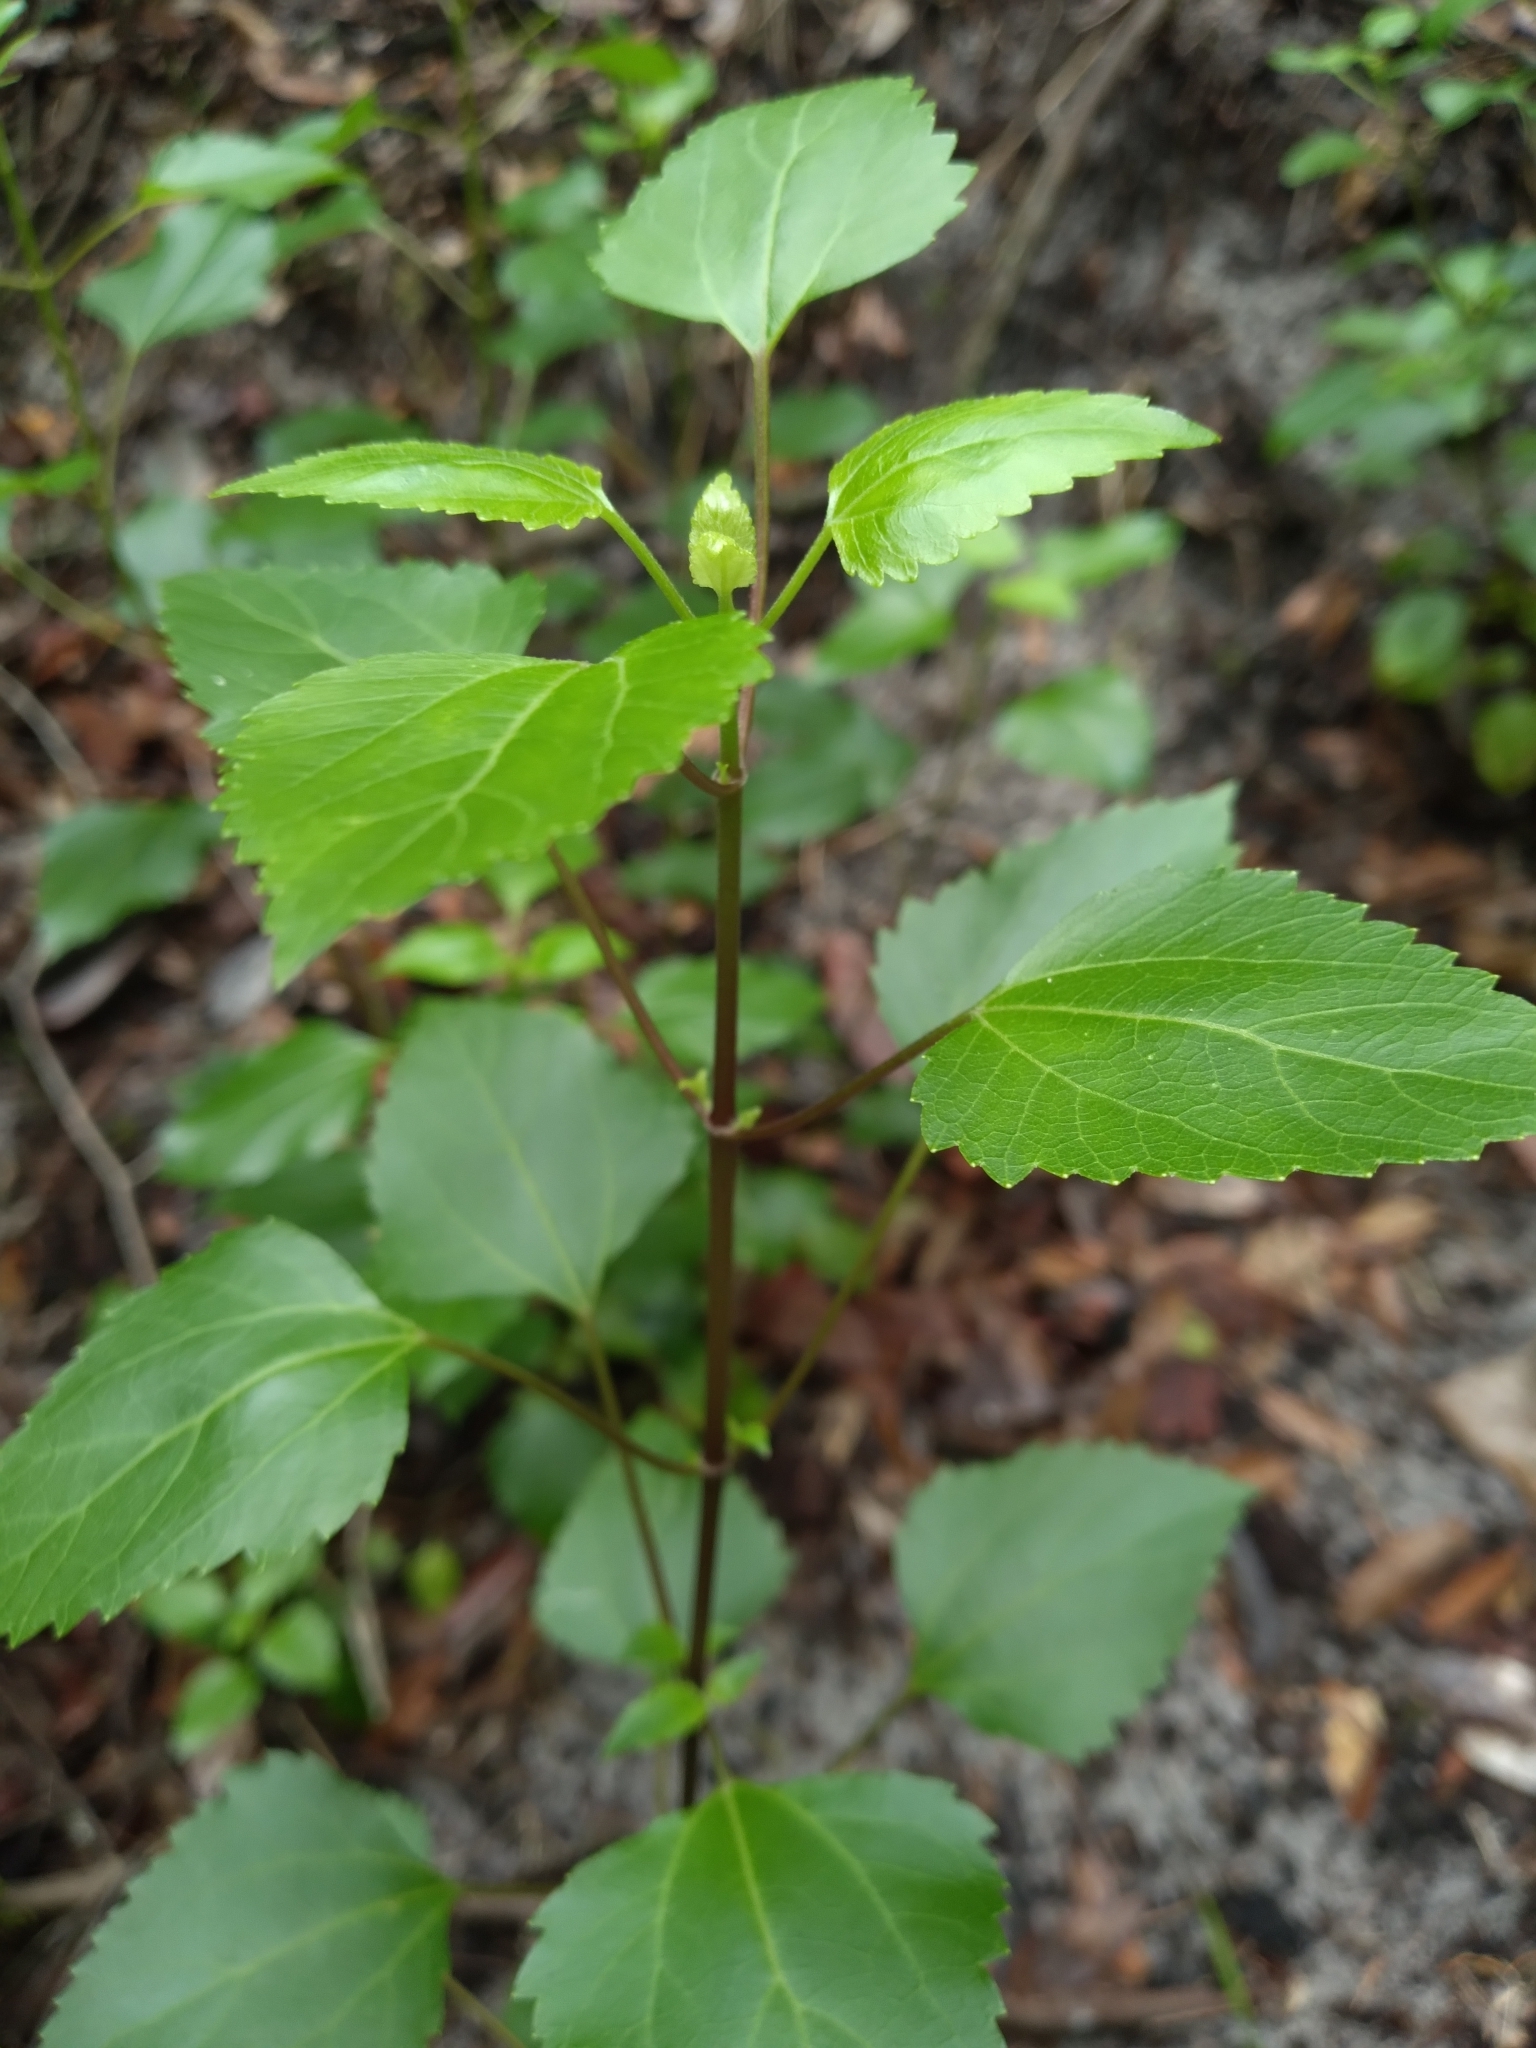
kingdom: Plantae
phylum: Tracheophyta
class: Magnoliopsida
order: Asterales
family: Asteraceae
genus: Ageratina
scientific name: Ageratina jucunda
